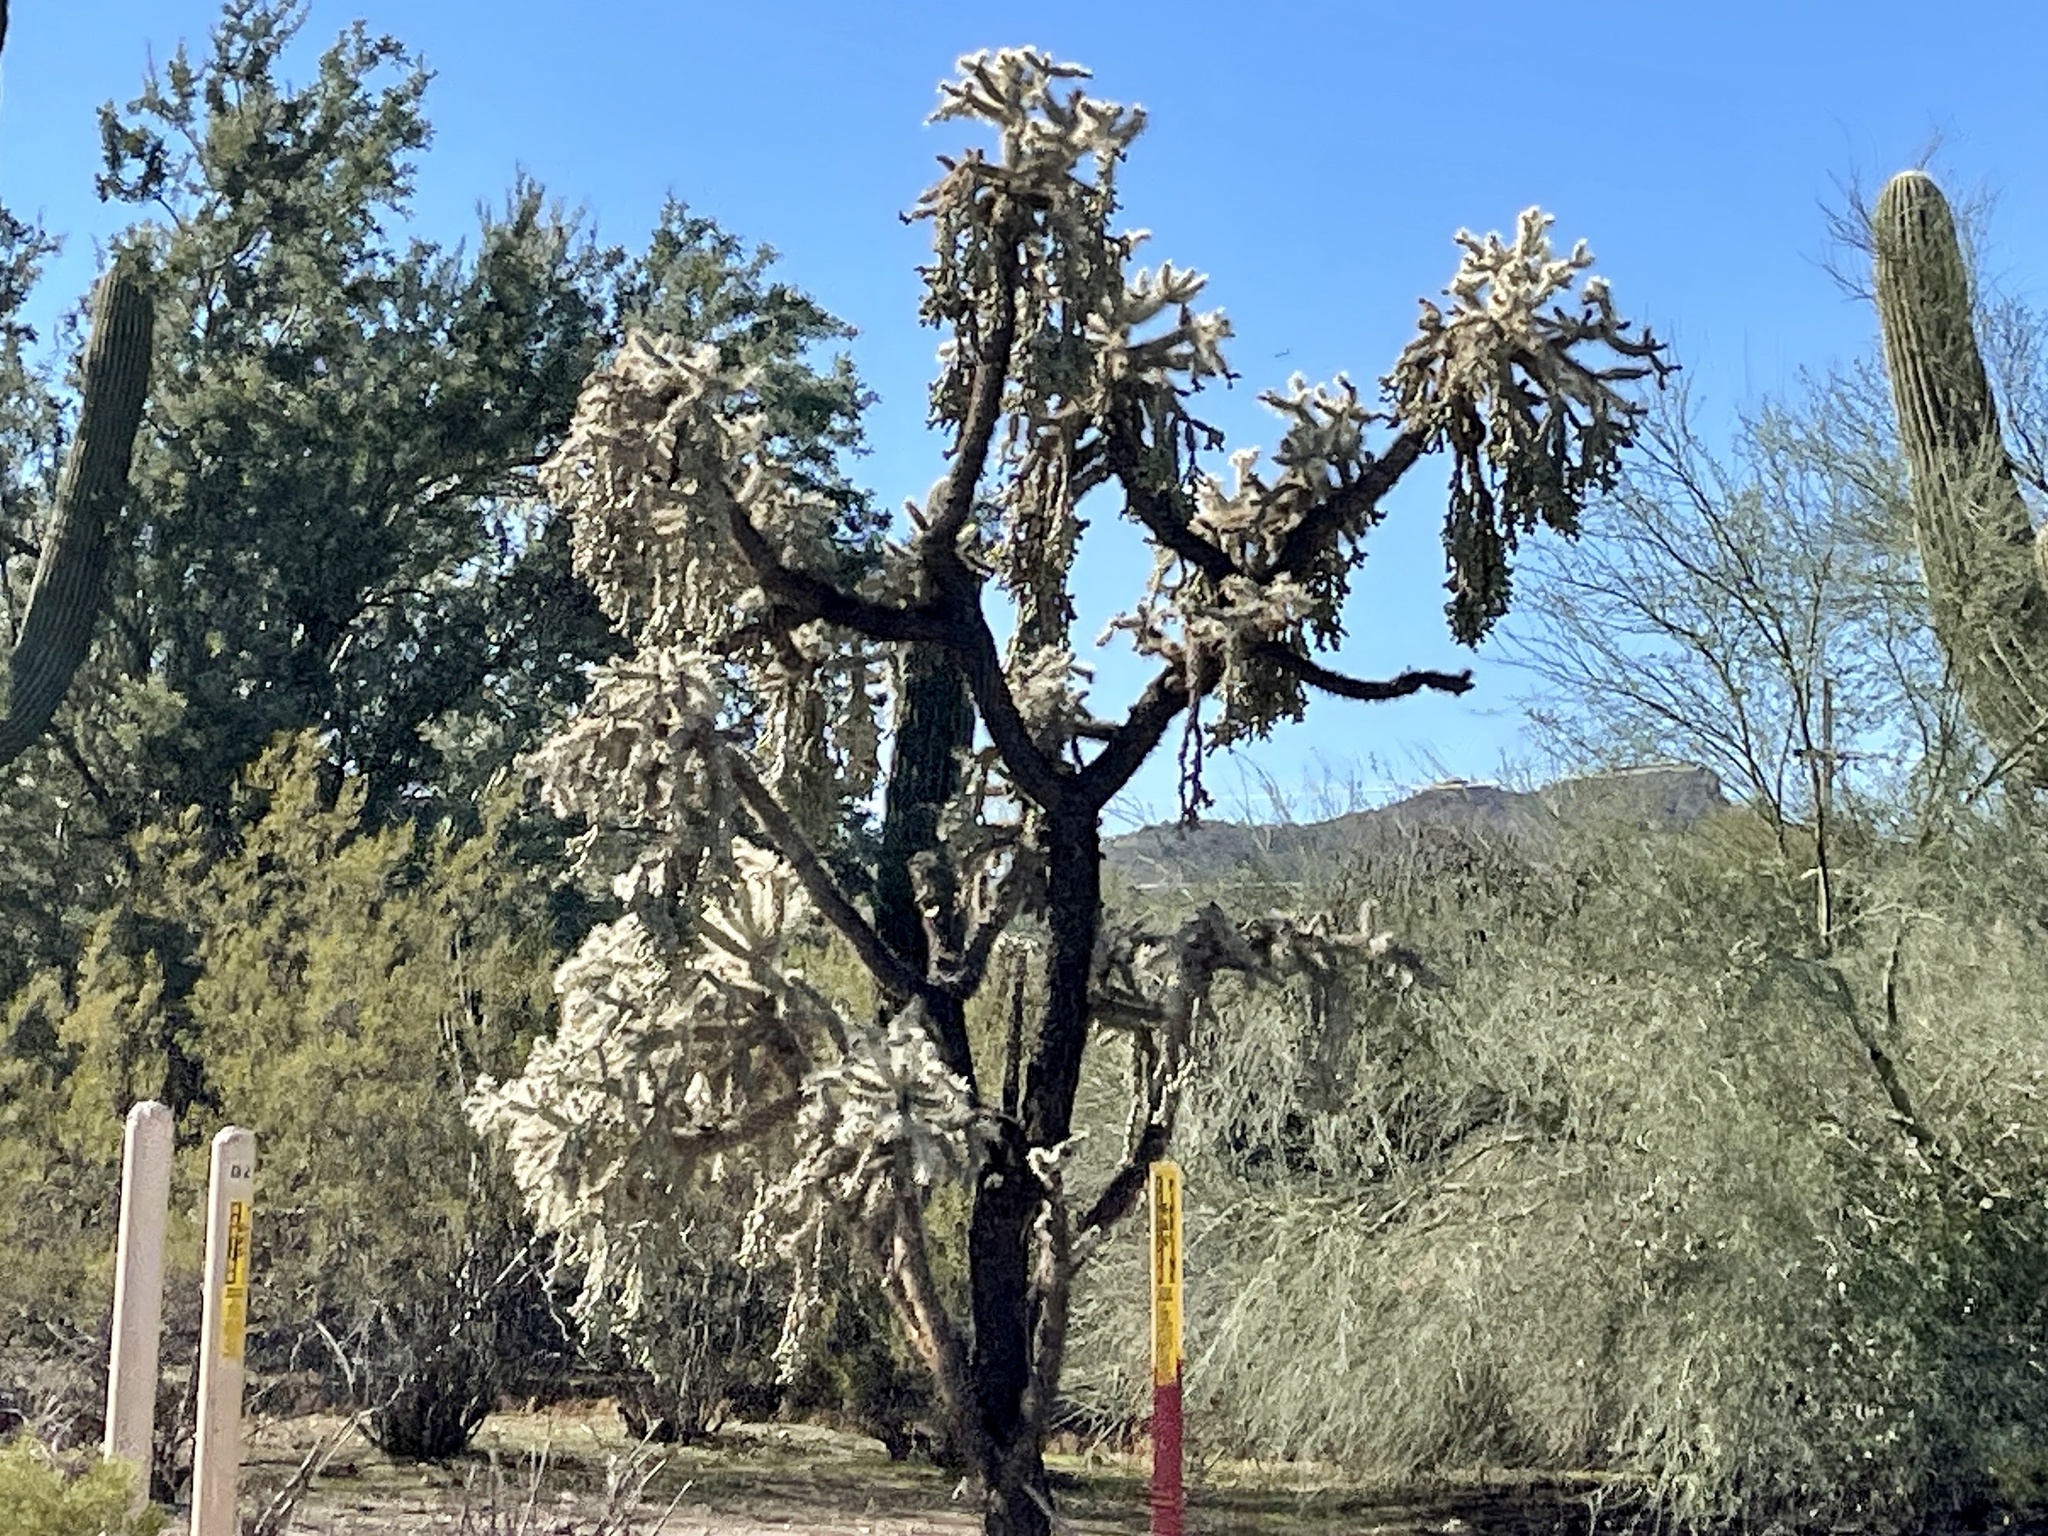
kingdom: Plantae
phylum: Tracheophyta
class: Magnoliopsida
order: Caryophyllales
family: Cactaceae
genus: Cylindropuntia
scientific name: Cylindropuntia fulgida
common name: Jumping cholla
